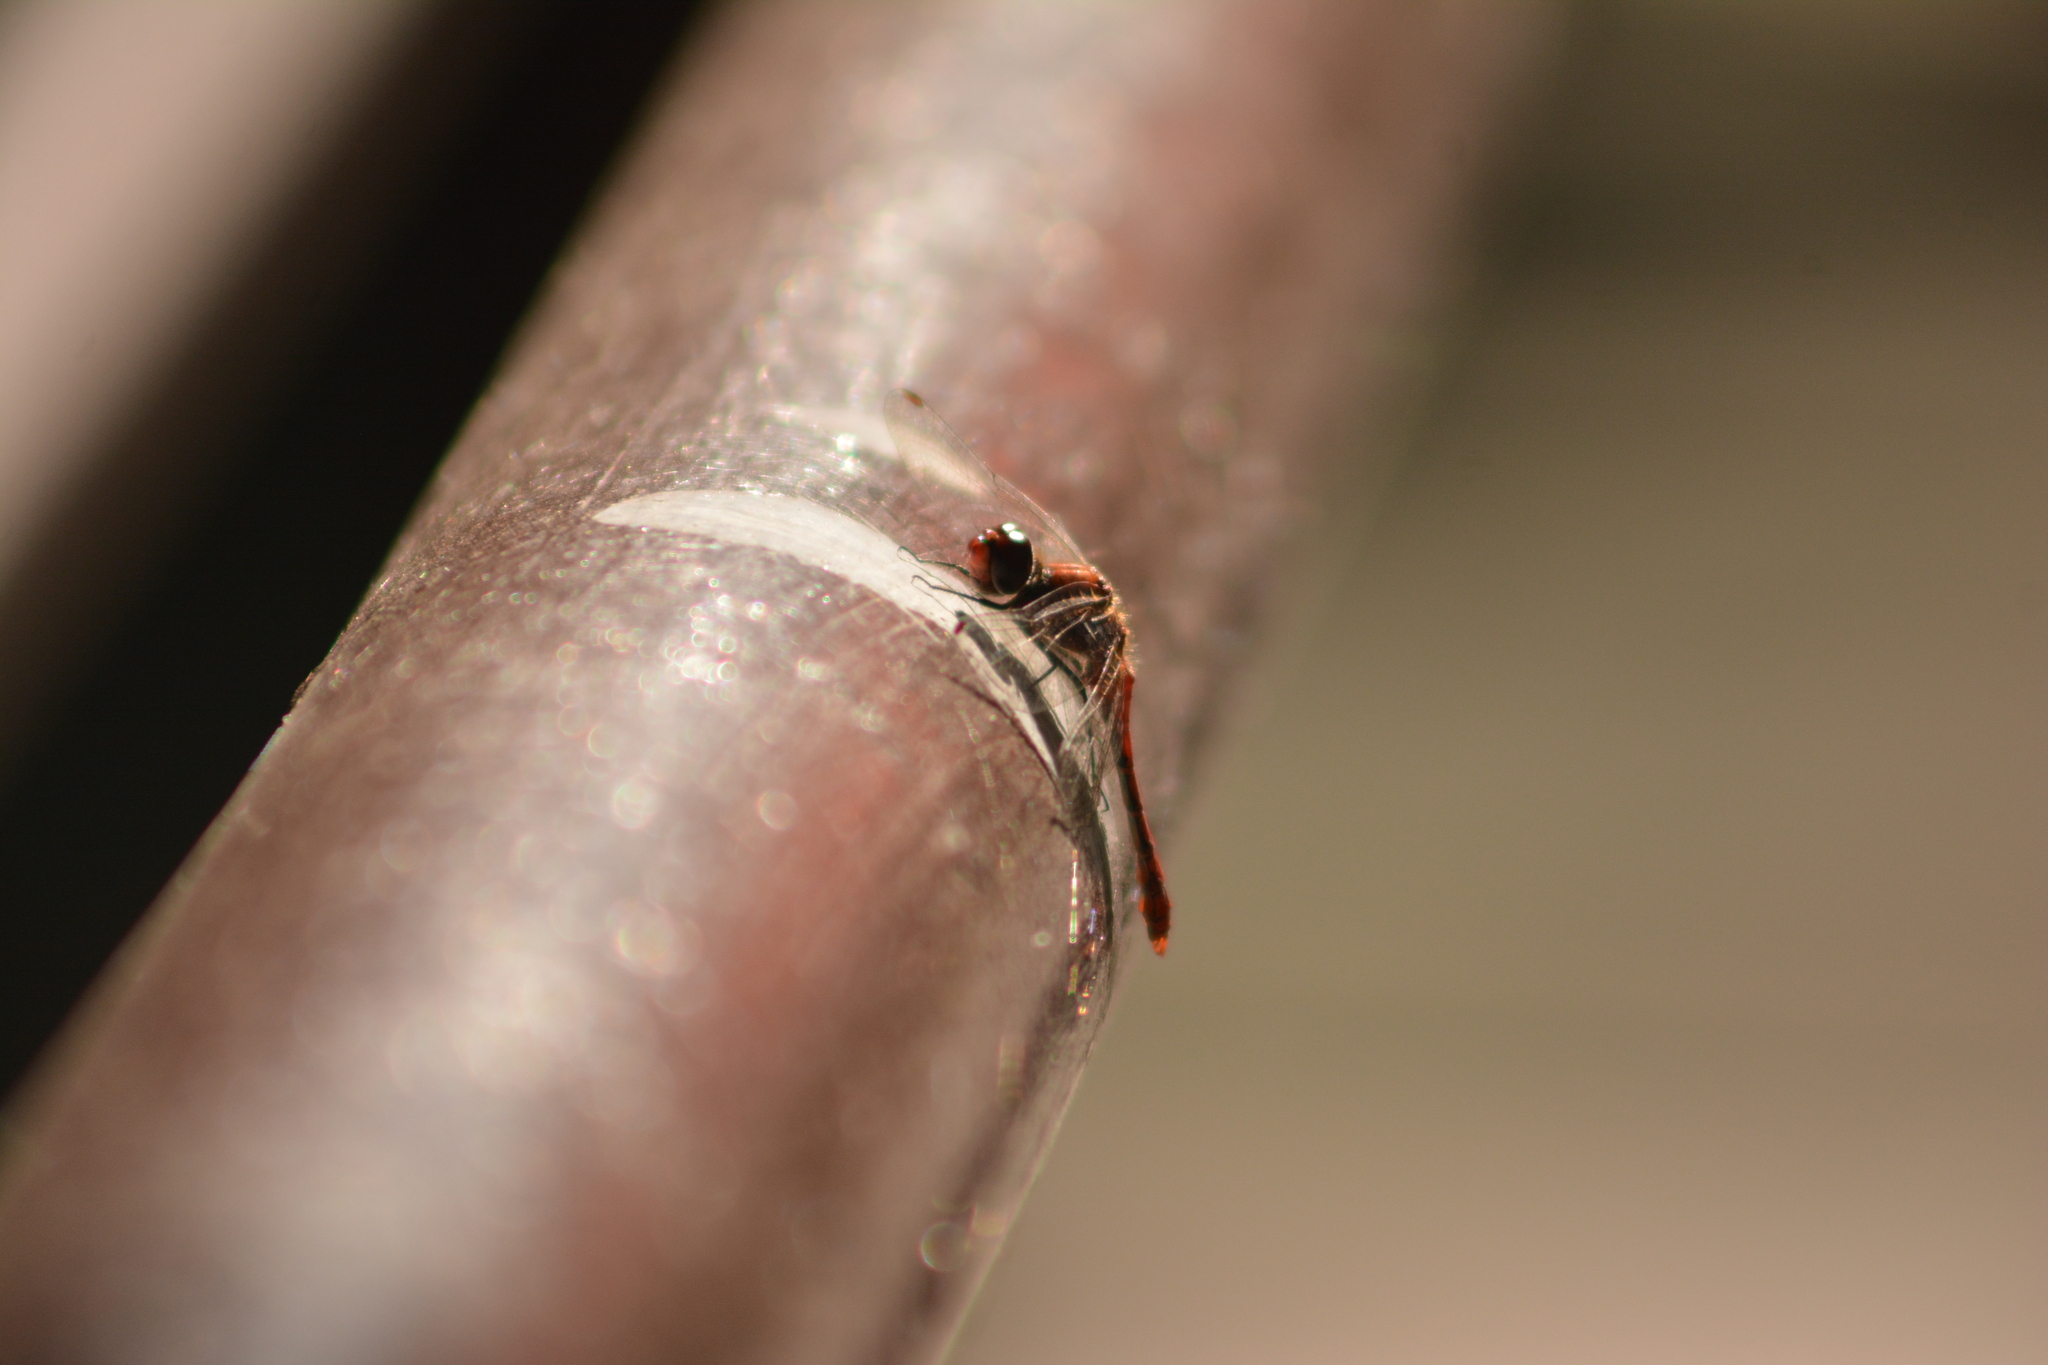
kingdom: Animalia
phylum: Arthropoda
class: Insecta
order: Odonata
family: Libellulidae
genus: Sympetrum
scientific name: Sympetrum sanguineum
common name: Ruddy darter
